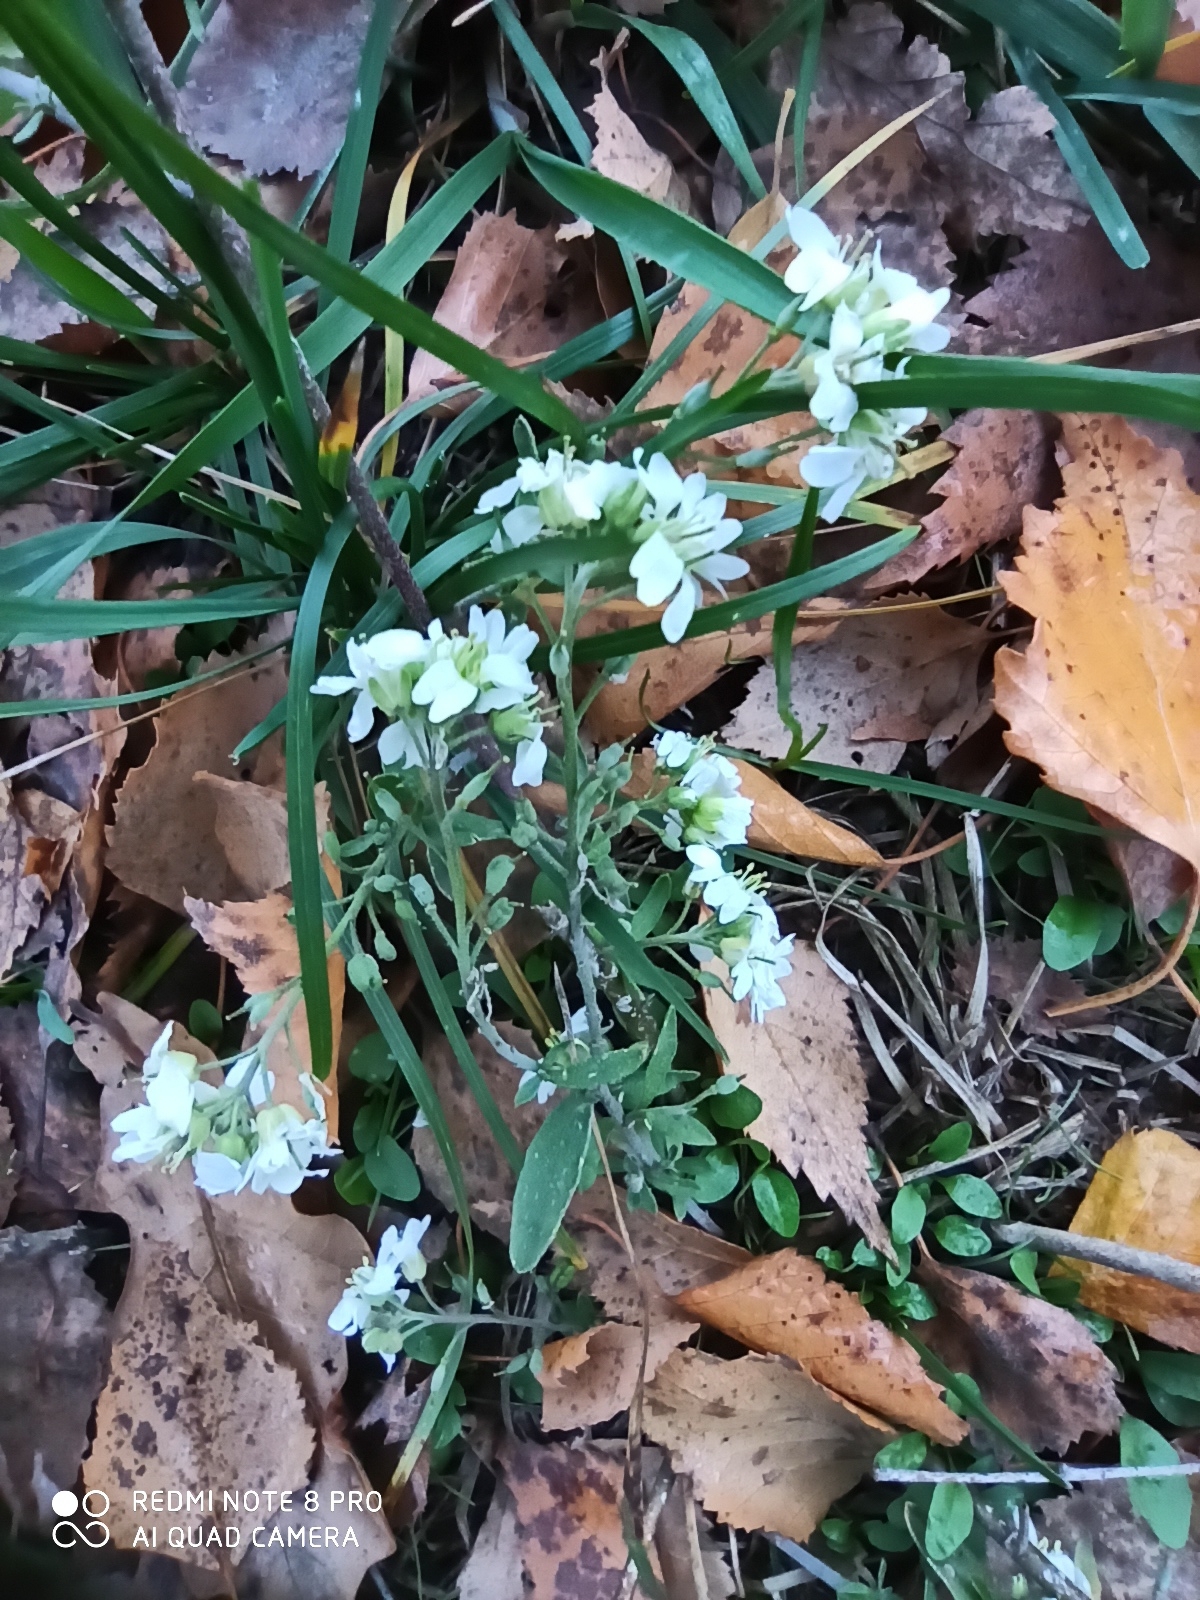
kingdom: Plantae
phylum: Tracheophyta
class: Magnoliopsida
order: Brassicales
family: Brassicaceae
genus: Berteroa
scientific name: Berteroa incana
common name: Hoary alison
